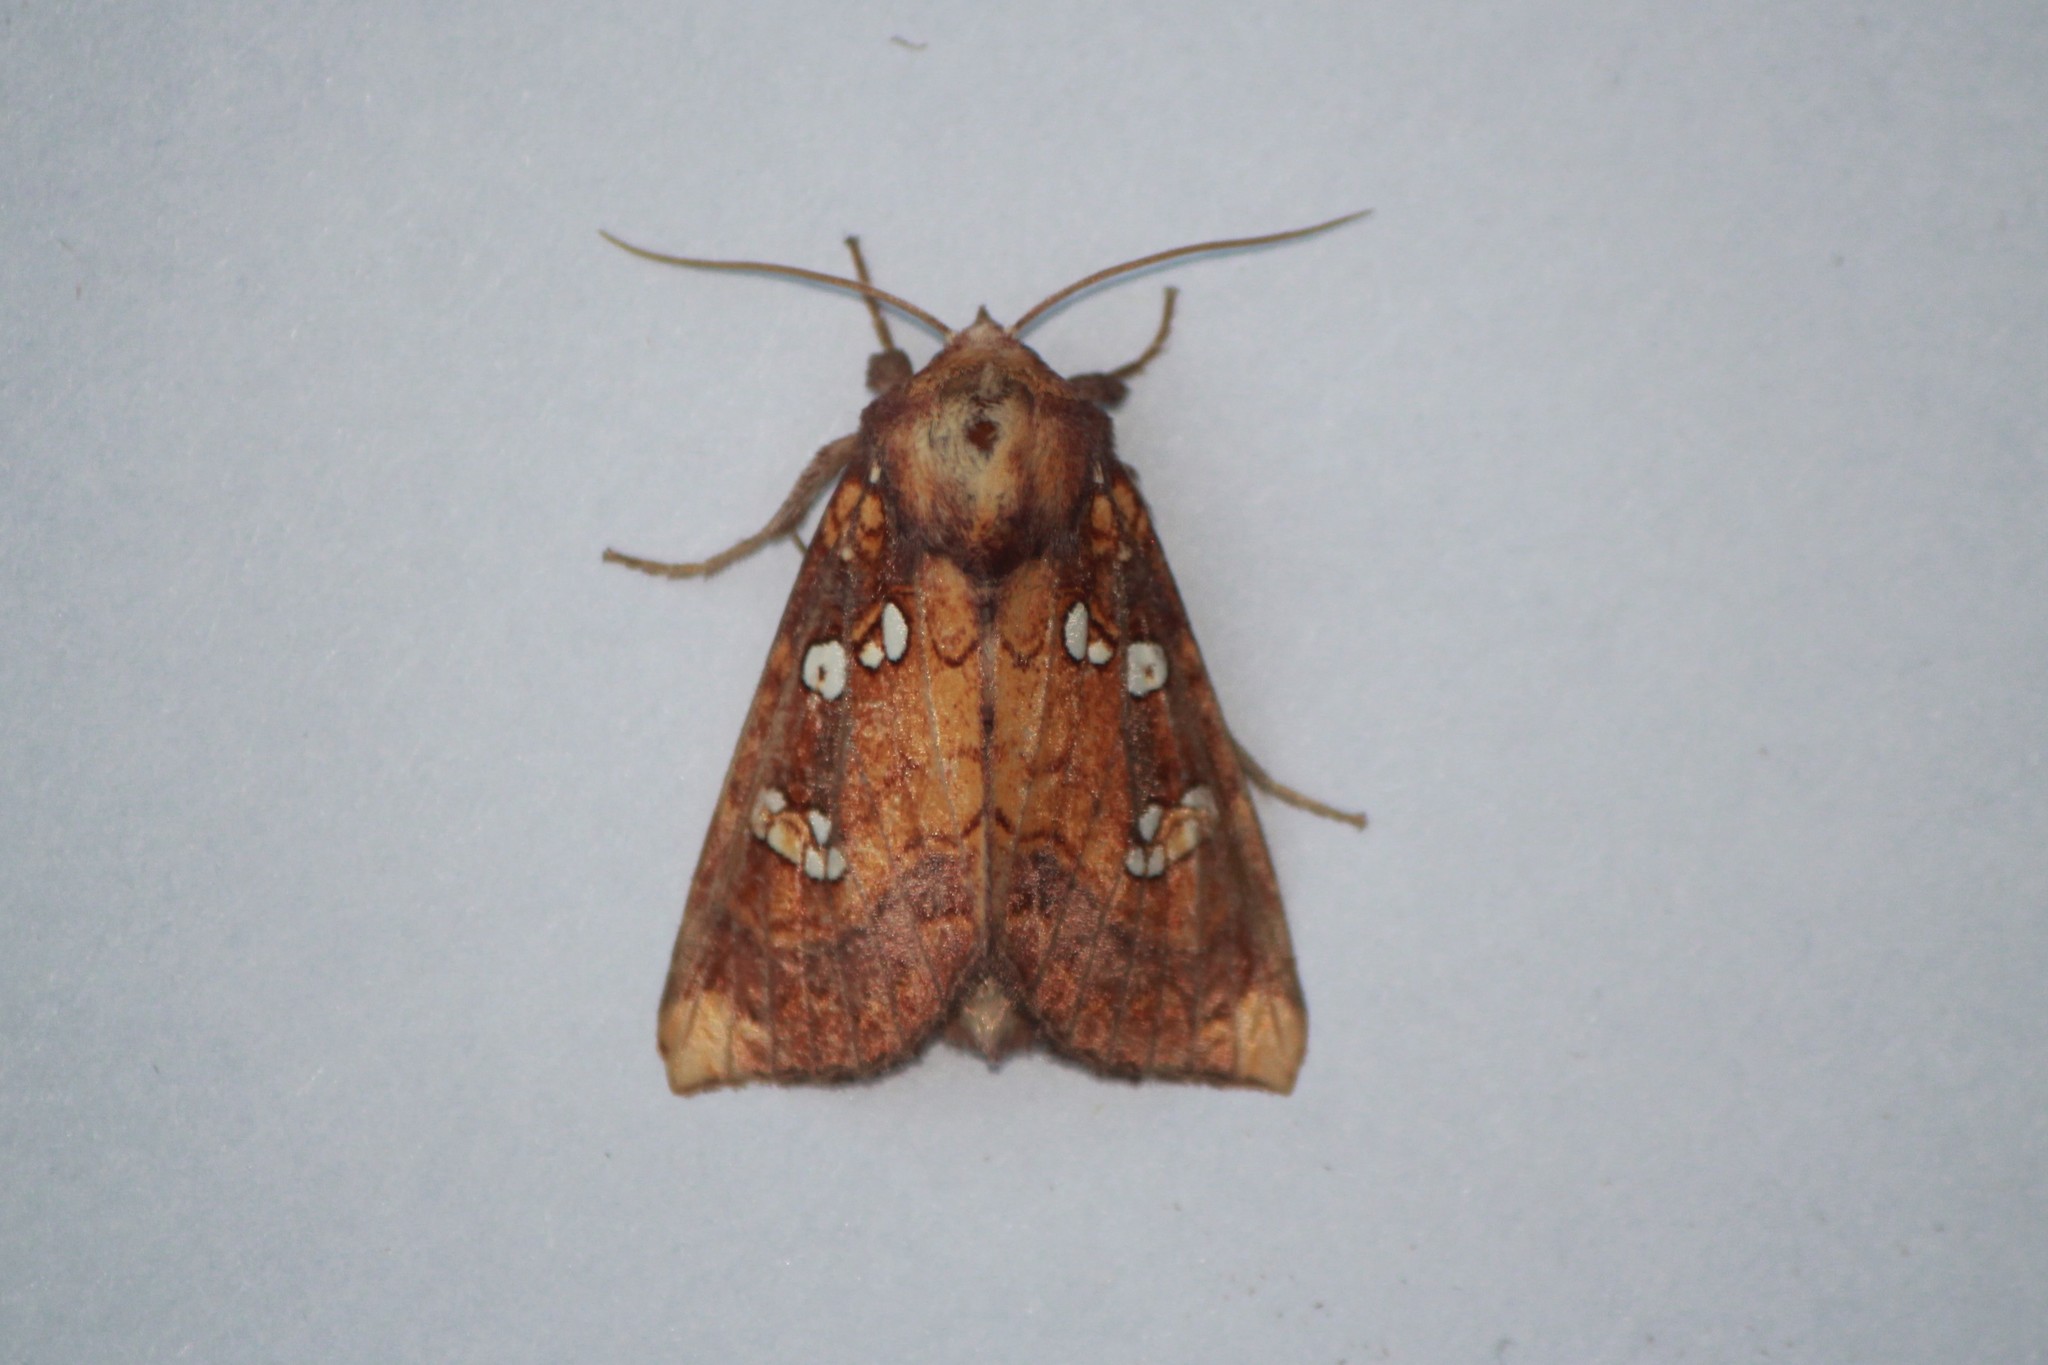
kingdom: Animalia
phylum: Arthropoda
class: Insecta
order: Lepidoptera
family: Noctuidae
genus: Papaipema
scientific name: Papaipema baptisiae
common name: Wild indigo borer moth
